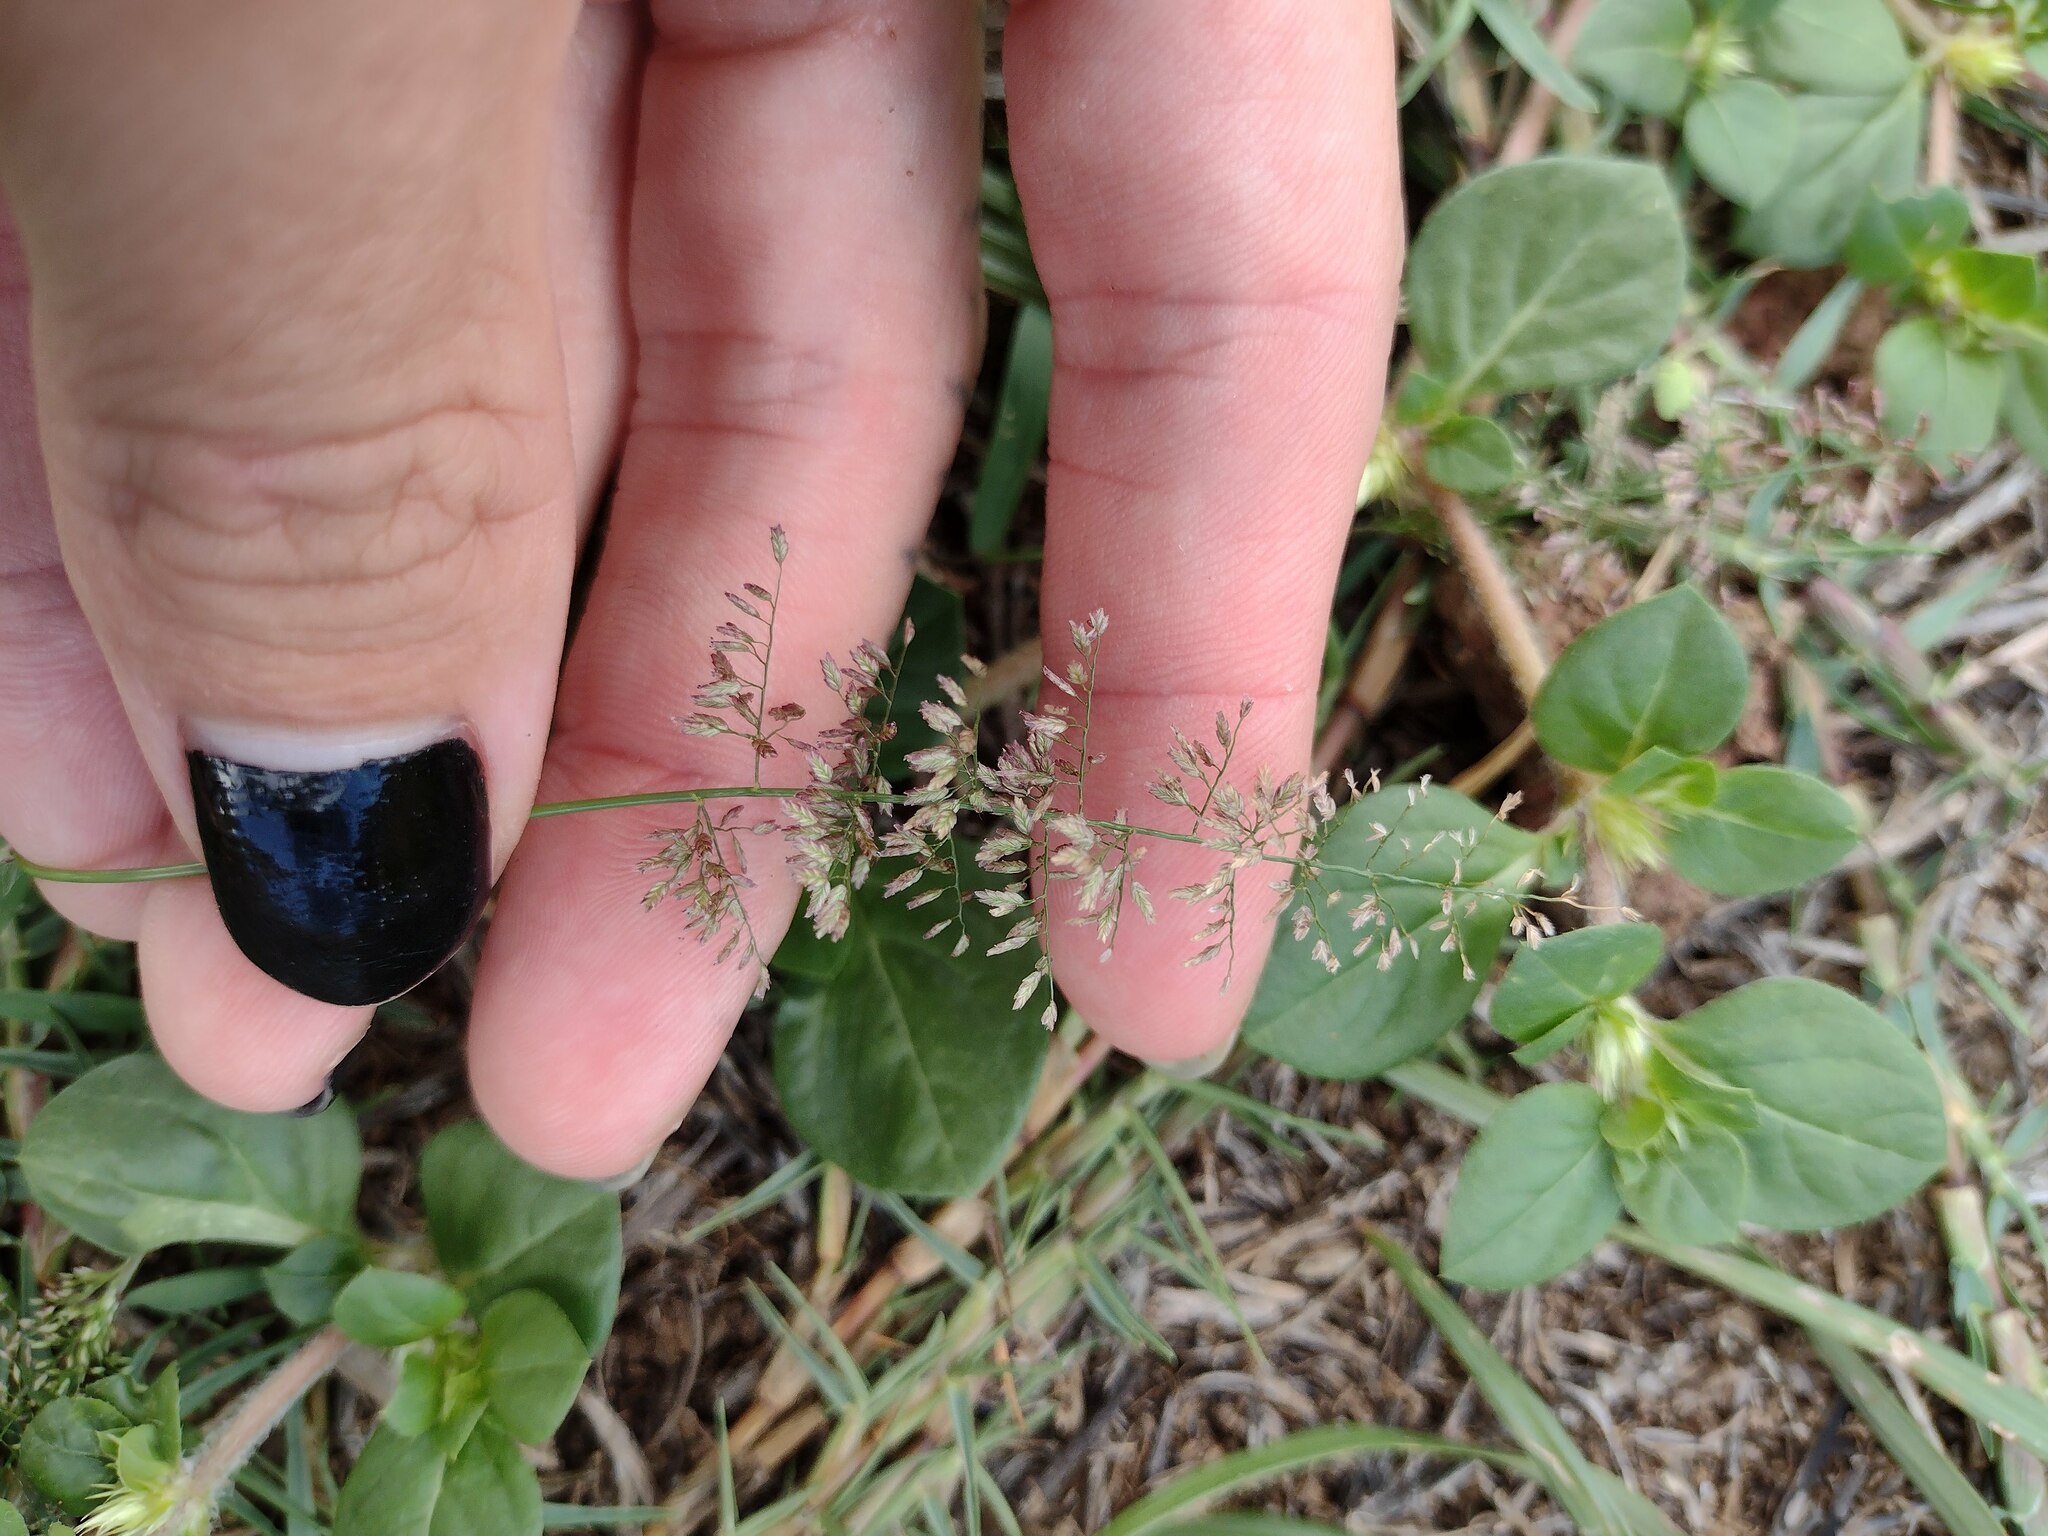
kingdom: Plantae
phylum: Tracheophyta
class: Liliopsida
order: Poales
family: Poaceae
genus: Eragrostis
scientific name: Eragrostis tenella
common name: Japanese lovegrass
